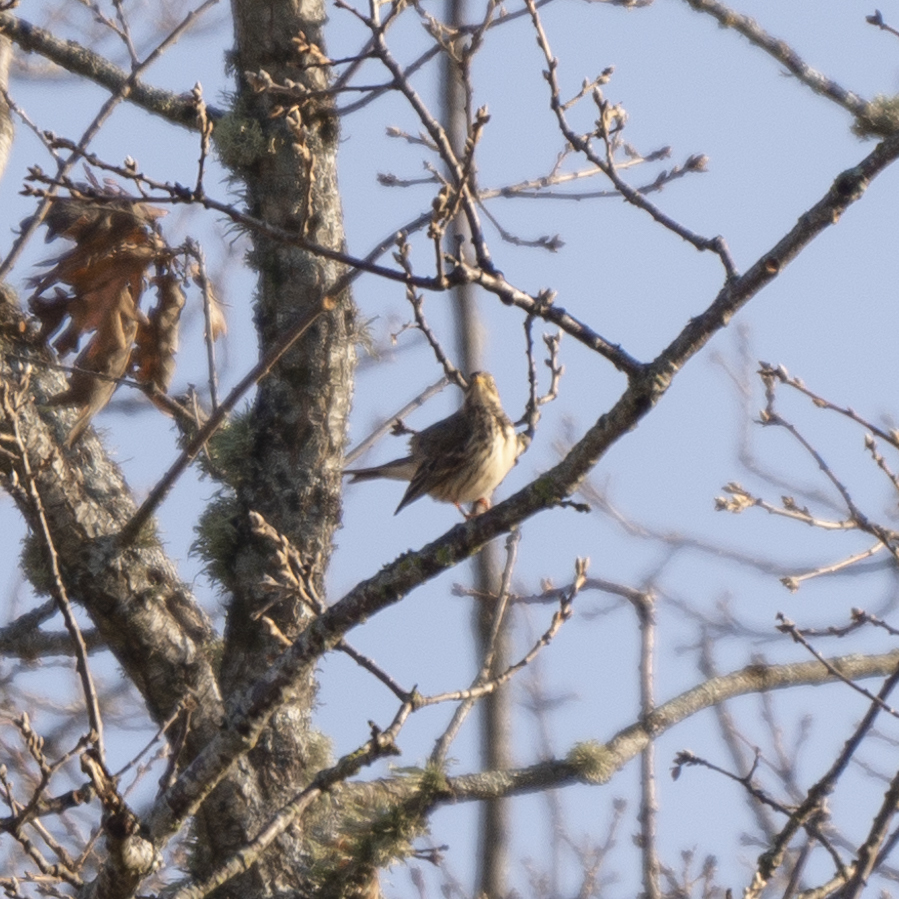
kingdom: Animalia
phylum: Chordata
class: Aves
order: Passeriformes
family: Motacillidae
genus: Anthus
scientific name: Anthus pratensis
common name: Meadow pipit
